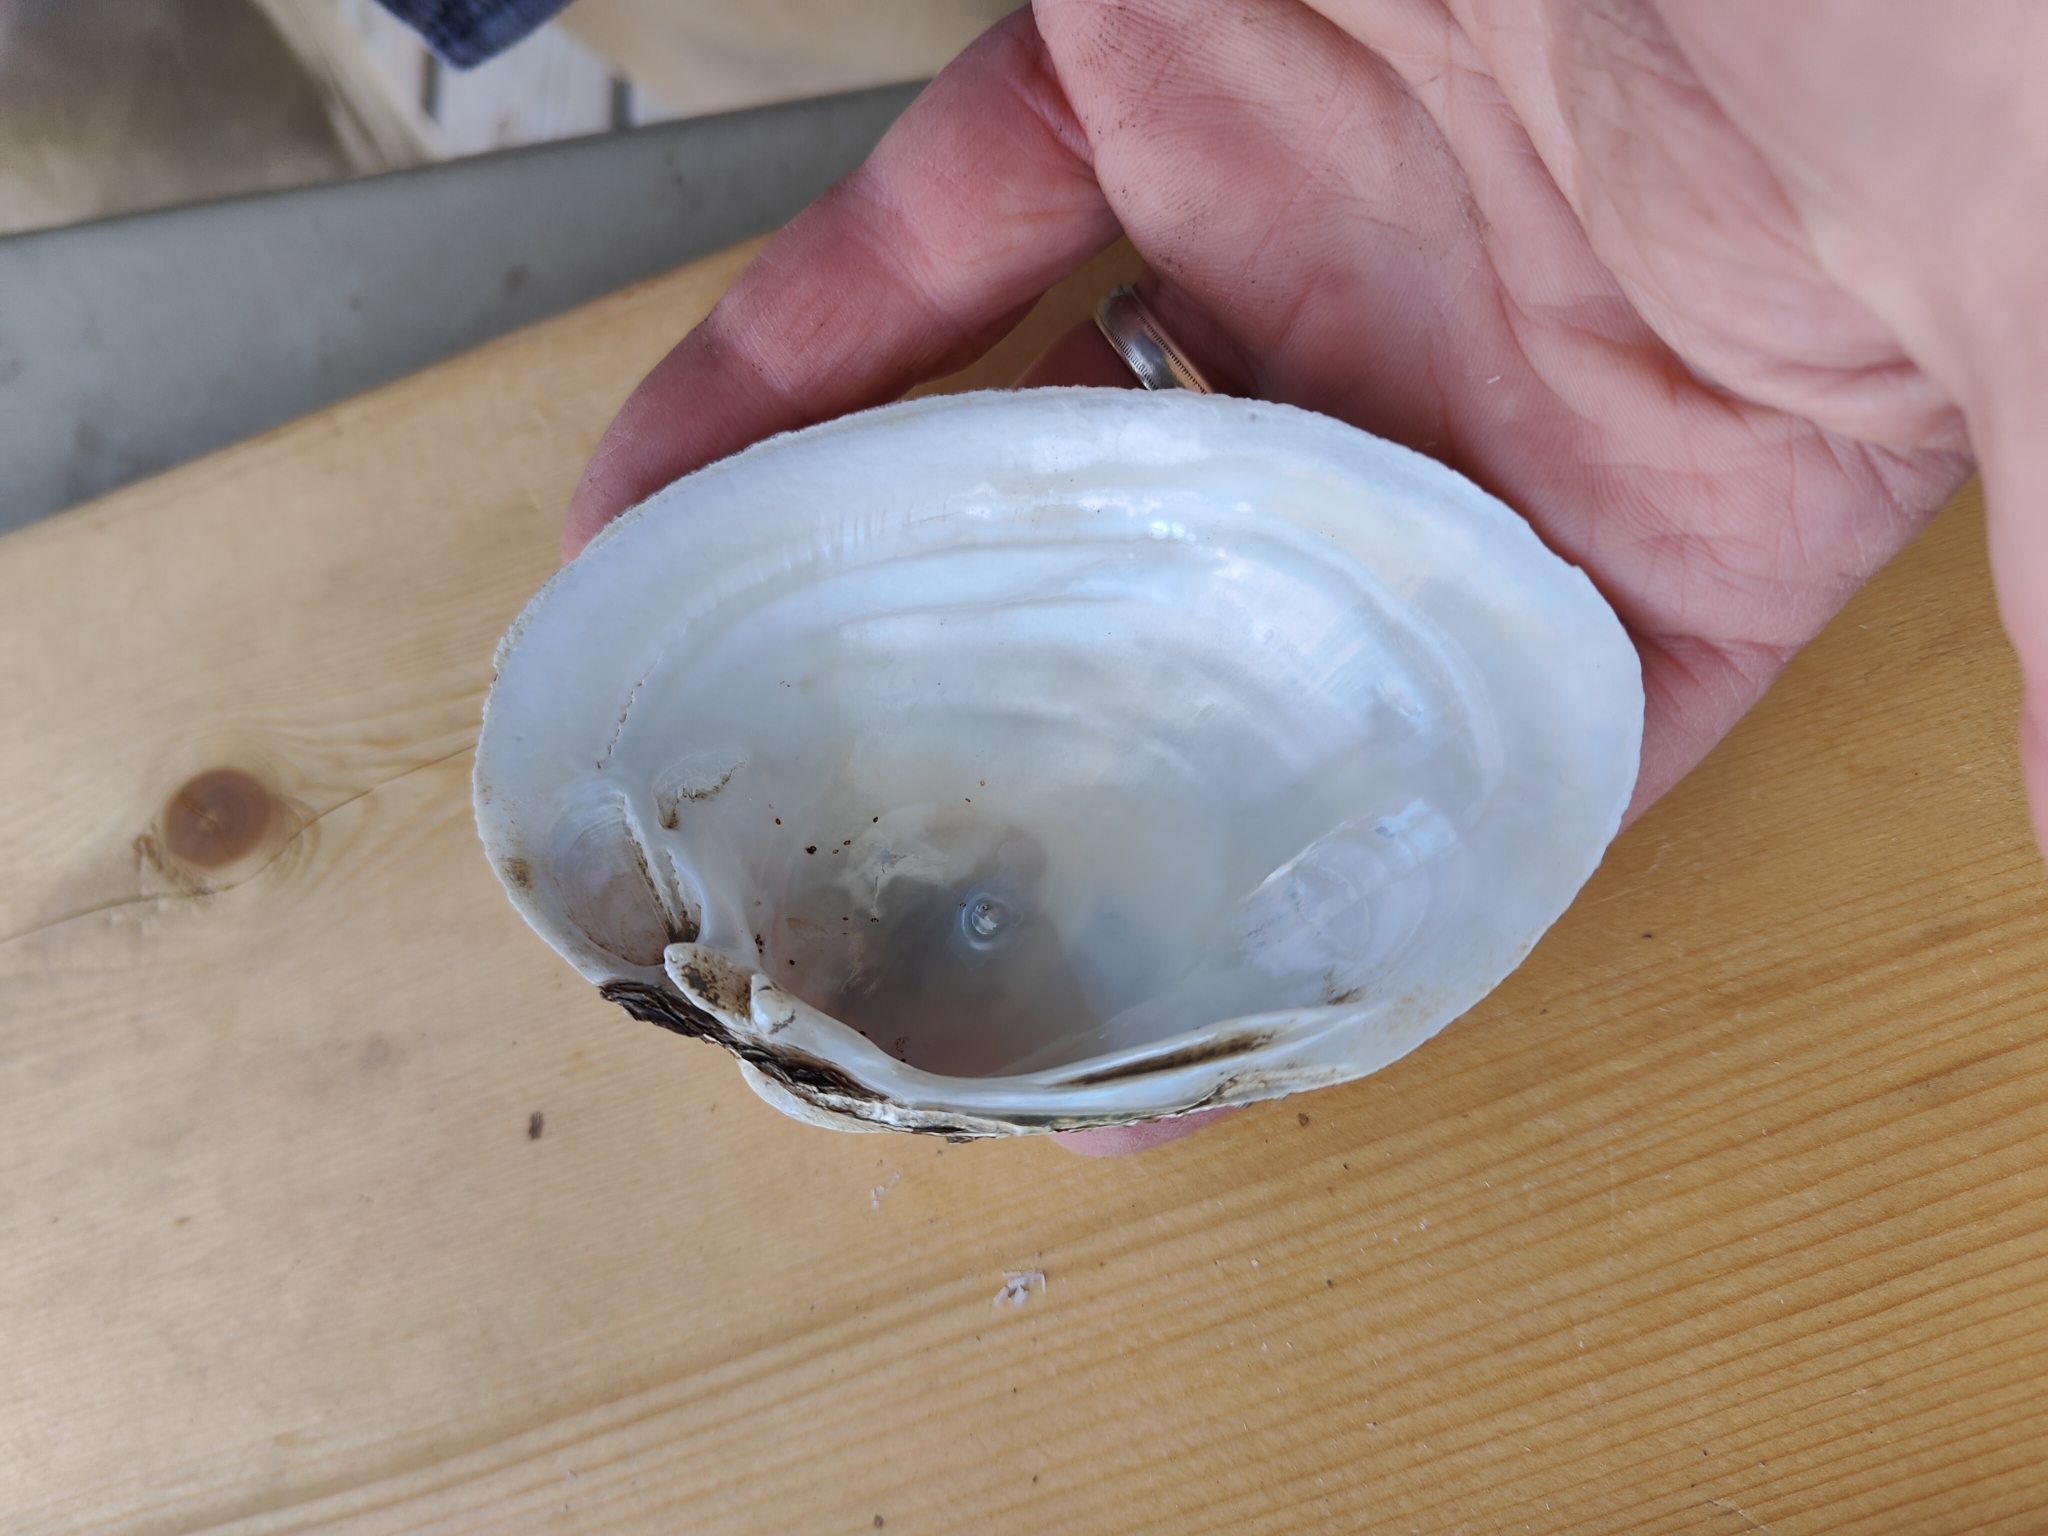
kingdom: Animalia
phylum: Mollusca
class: Bivalvia
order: Unionida
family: Unionidae
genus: Lampsilis
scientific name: Lampsilis cardium
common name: Plain pocketbook
